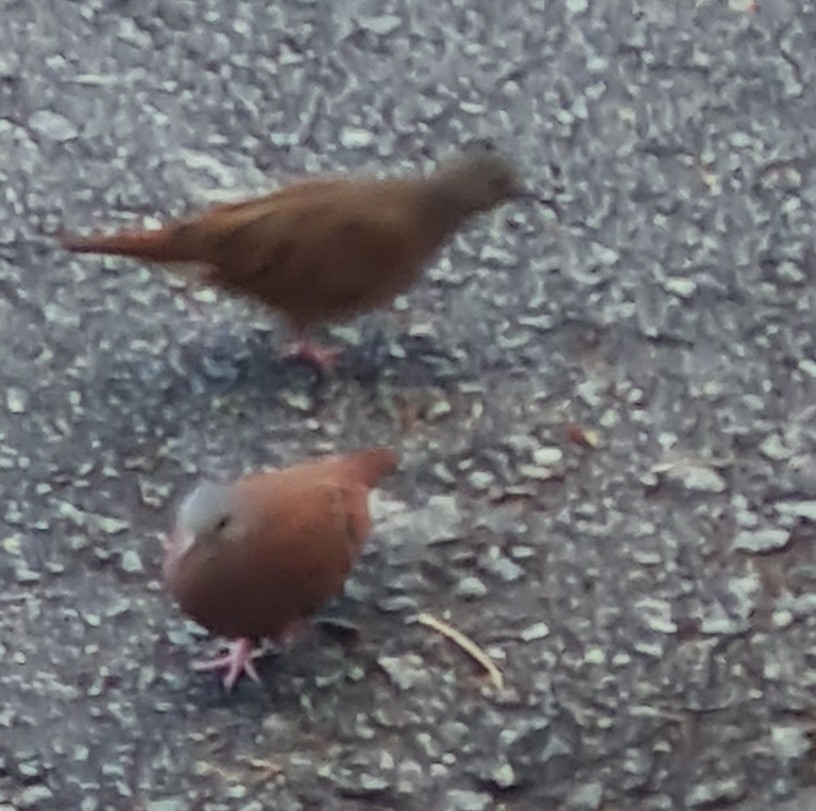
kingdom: Animalia
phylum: Chordata
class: Aves
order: Columbiformes
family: Columbidae
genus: Columbina
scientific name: Columbina talpacoti
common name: Ruddy ground dove
